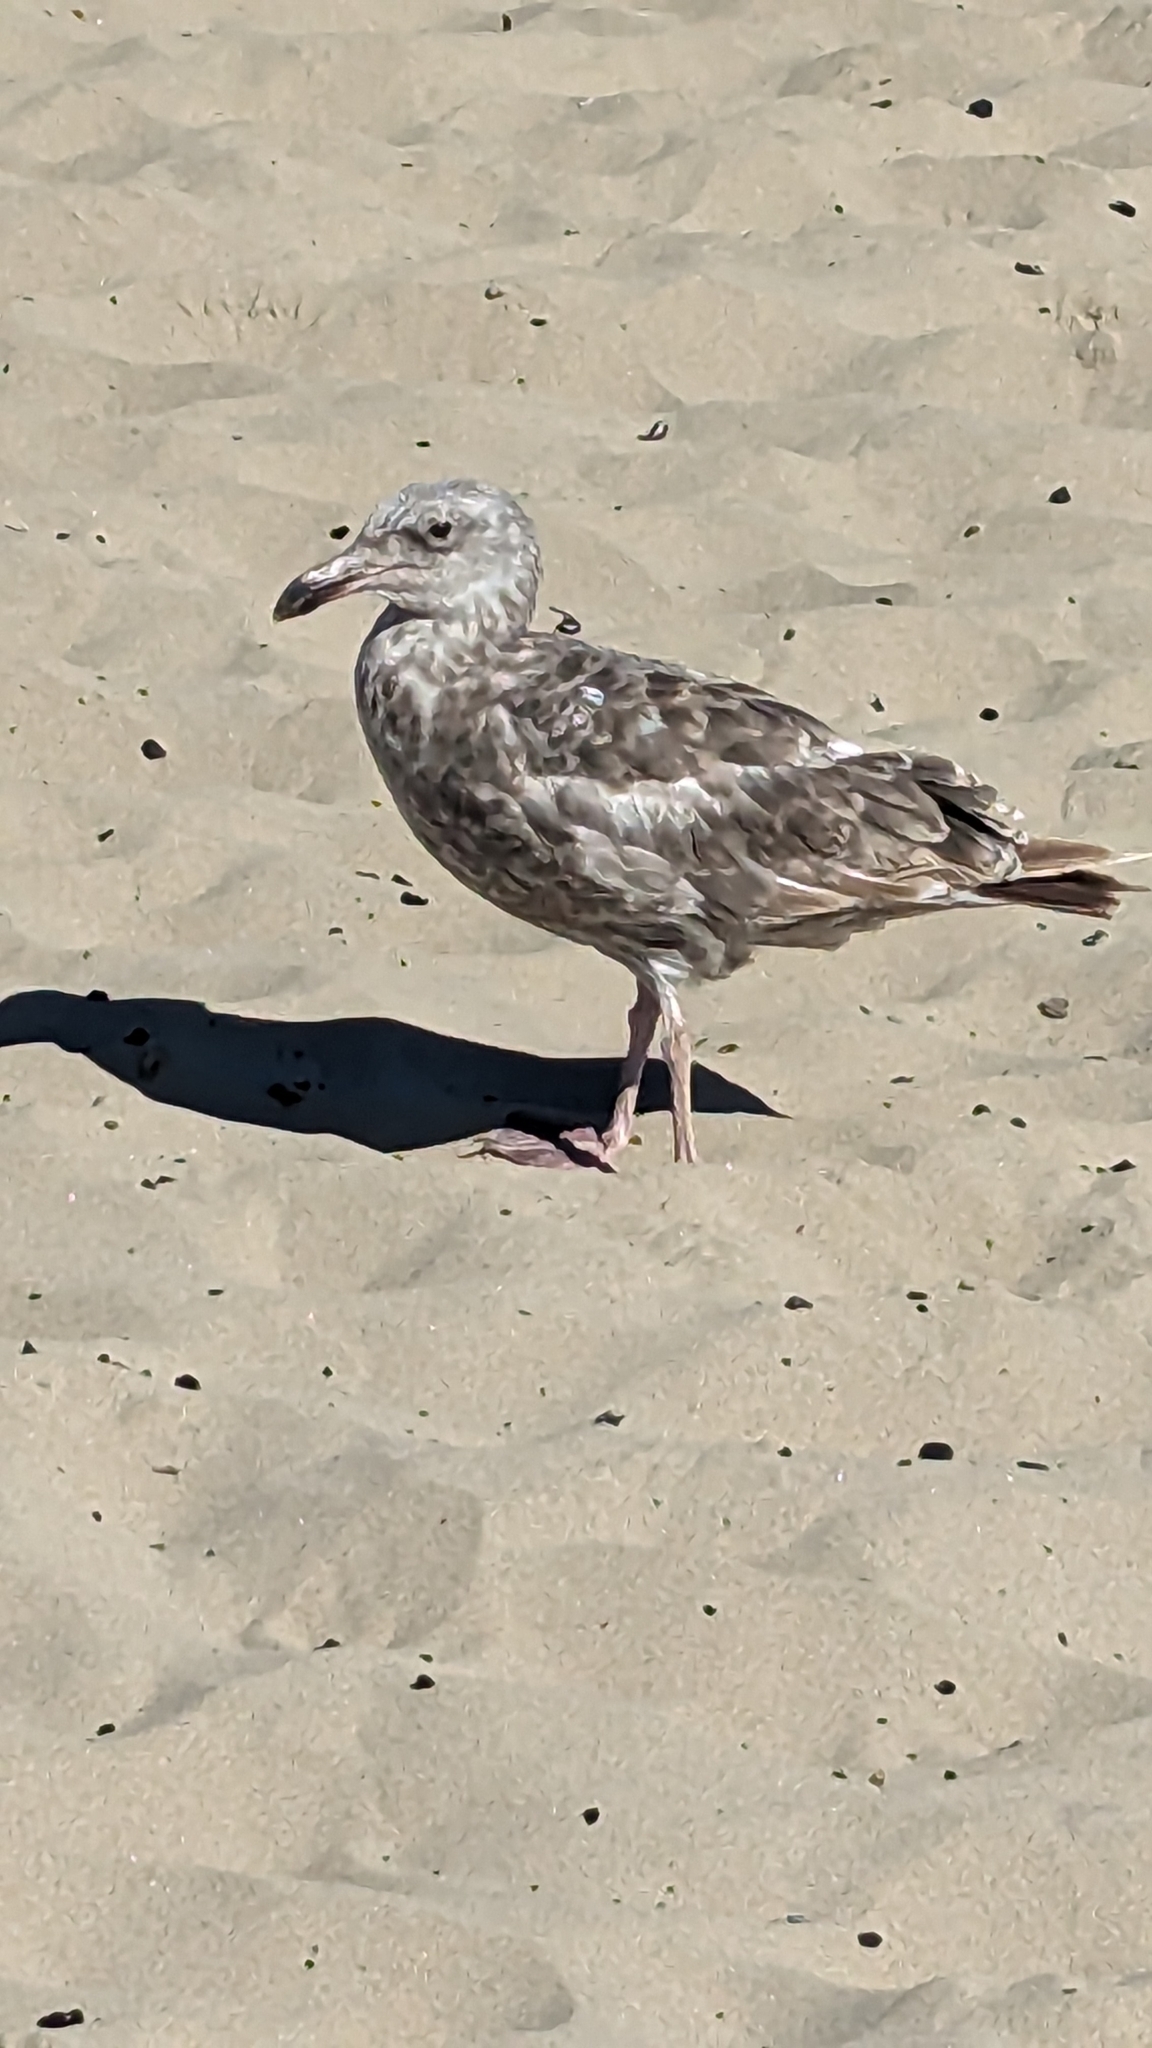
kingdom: Animalia
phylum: Chordata
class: Aves
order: Charadriiformes
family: Laridae
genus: Larus
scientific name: Larus occidentalis
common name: Western gull
